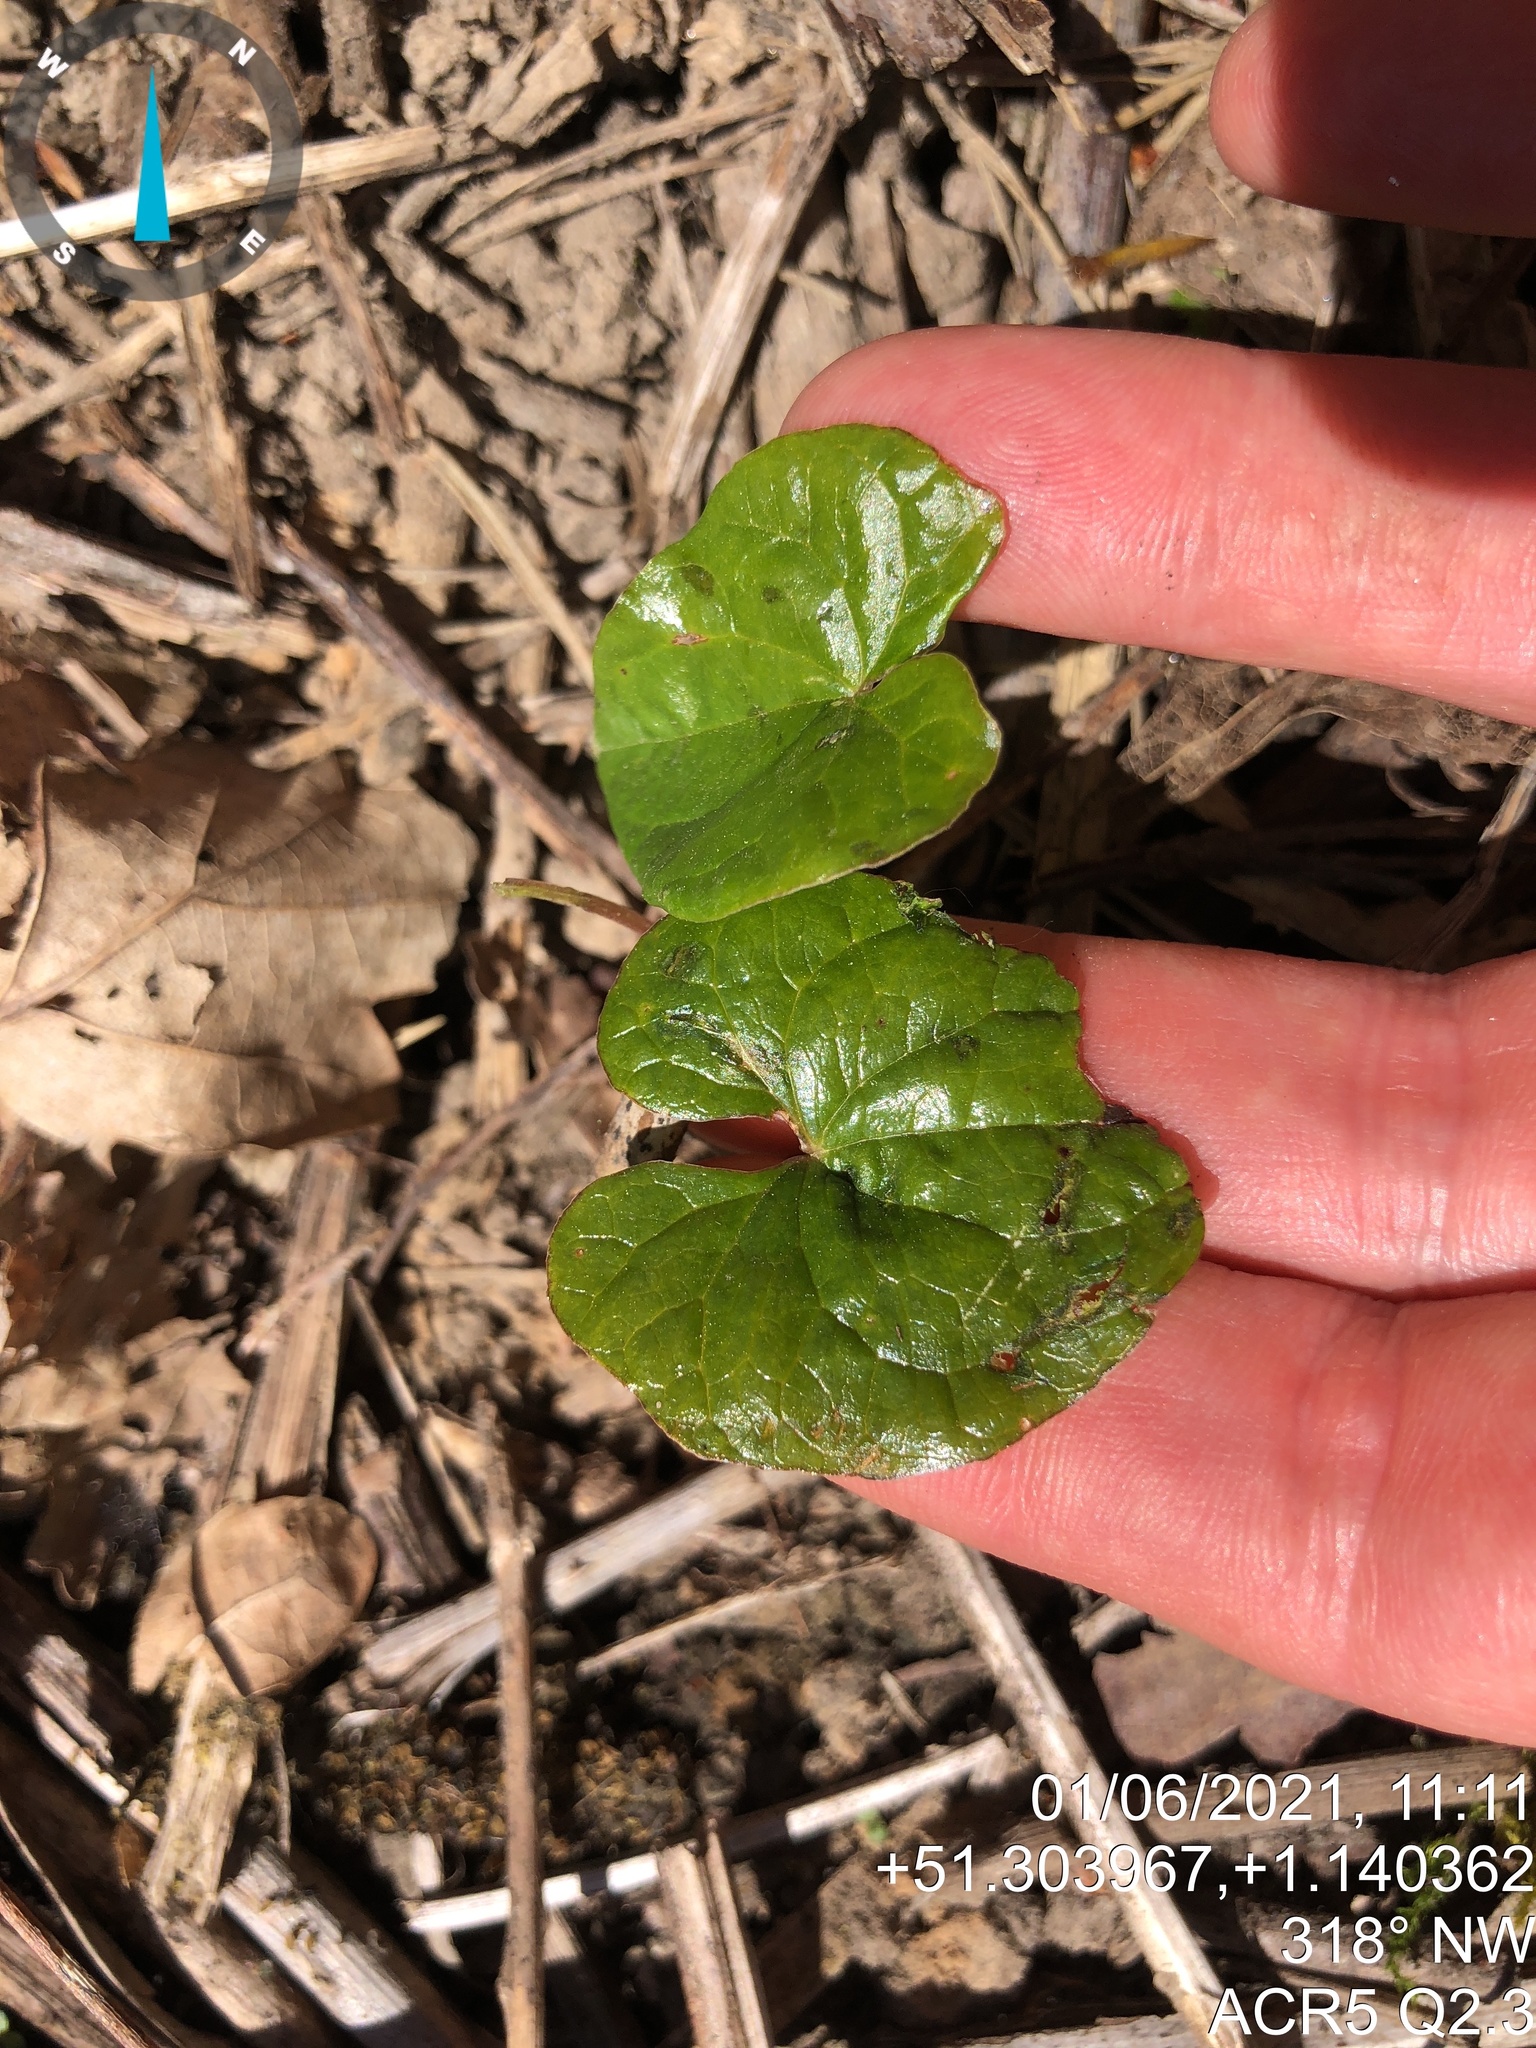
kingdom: Plantae
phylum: Tracheophyta
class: Liliopsida
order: Dioscoreales
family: Dioscoreaceae
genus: Dioscorea
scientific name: Dioscorea communis
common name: Black-bindweed
